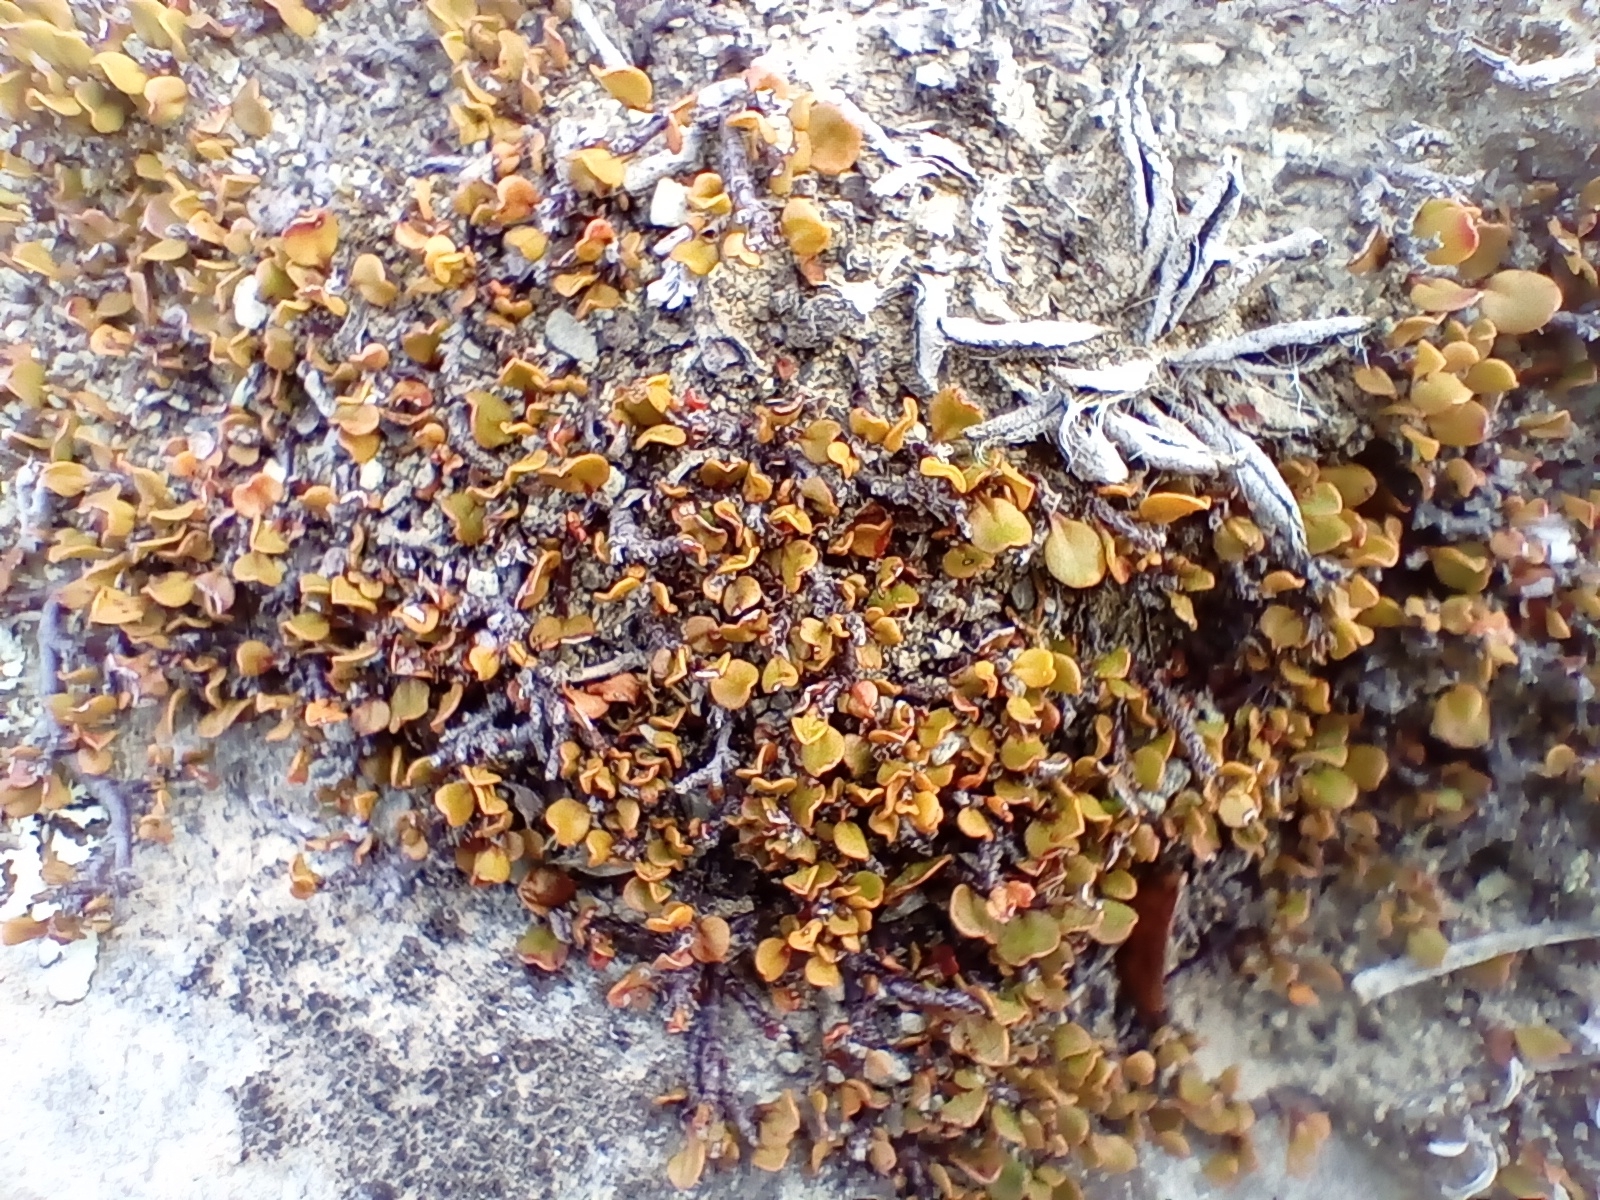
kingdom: Plantae
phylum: Tracheophyta
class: Magnoliopsida
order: Caryophyllales
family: Polygonaceae
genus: Muehlenbeckia
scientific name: Muehlenbeckia axillaris
